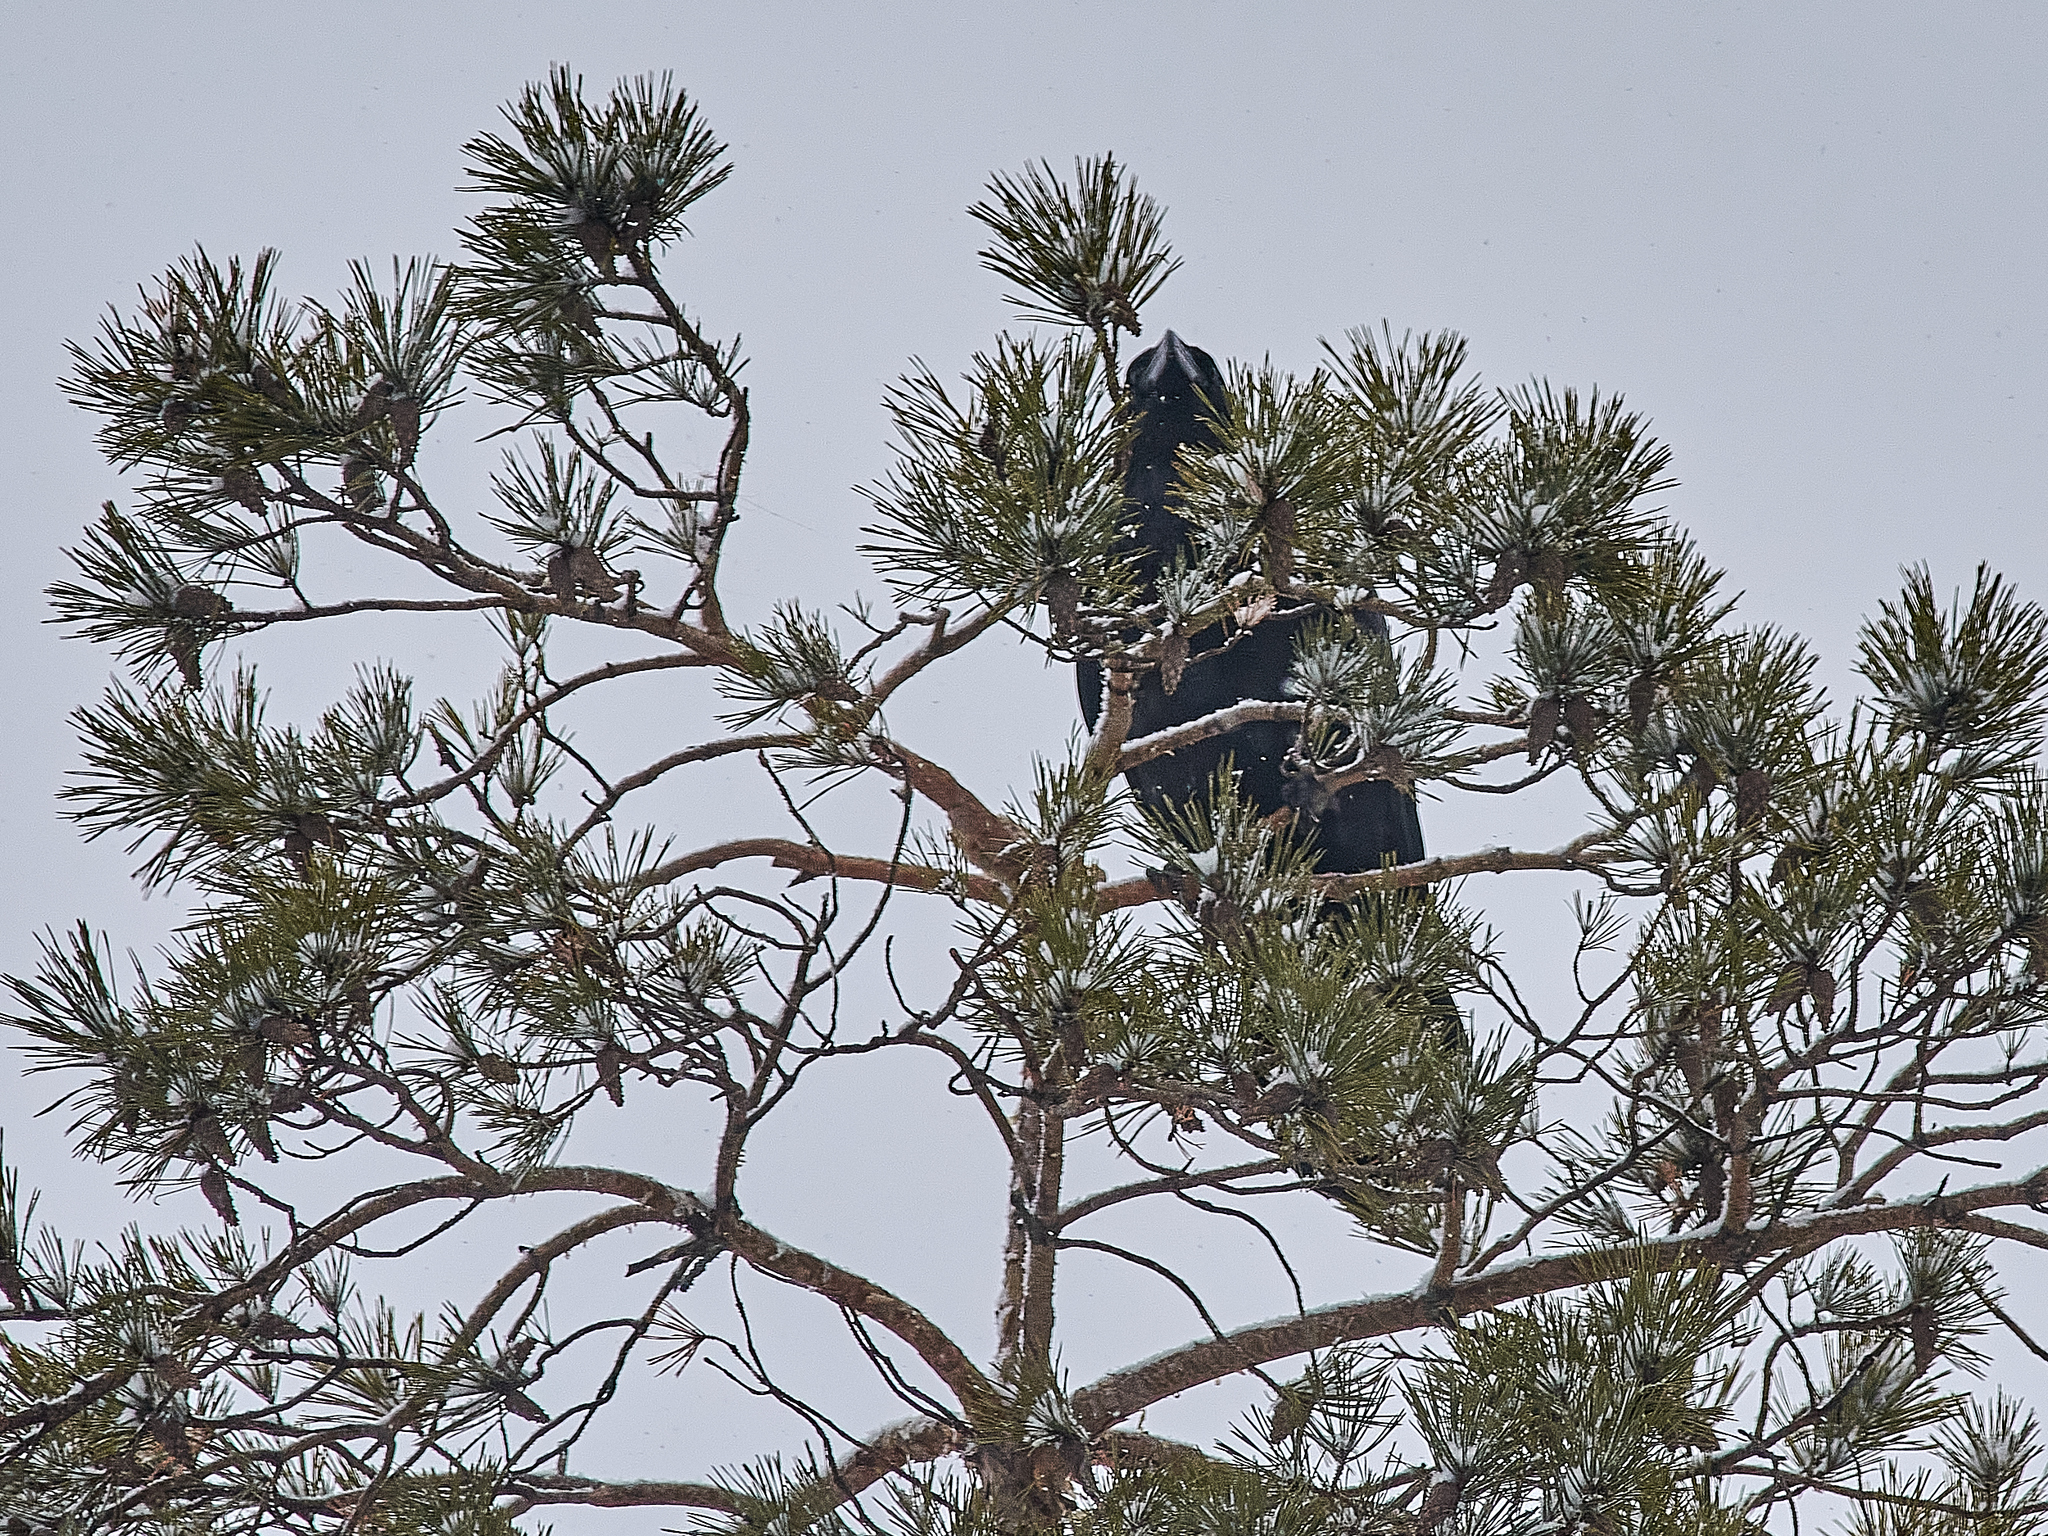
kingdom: Animalia
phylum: Chordata
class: Aves
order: Passeriformes
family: Corvidae
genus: Corvus
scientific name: Corvus corax
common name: Common raven
